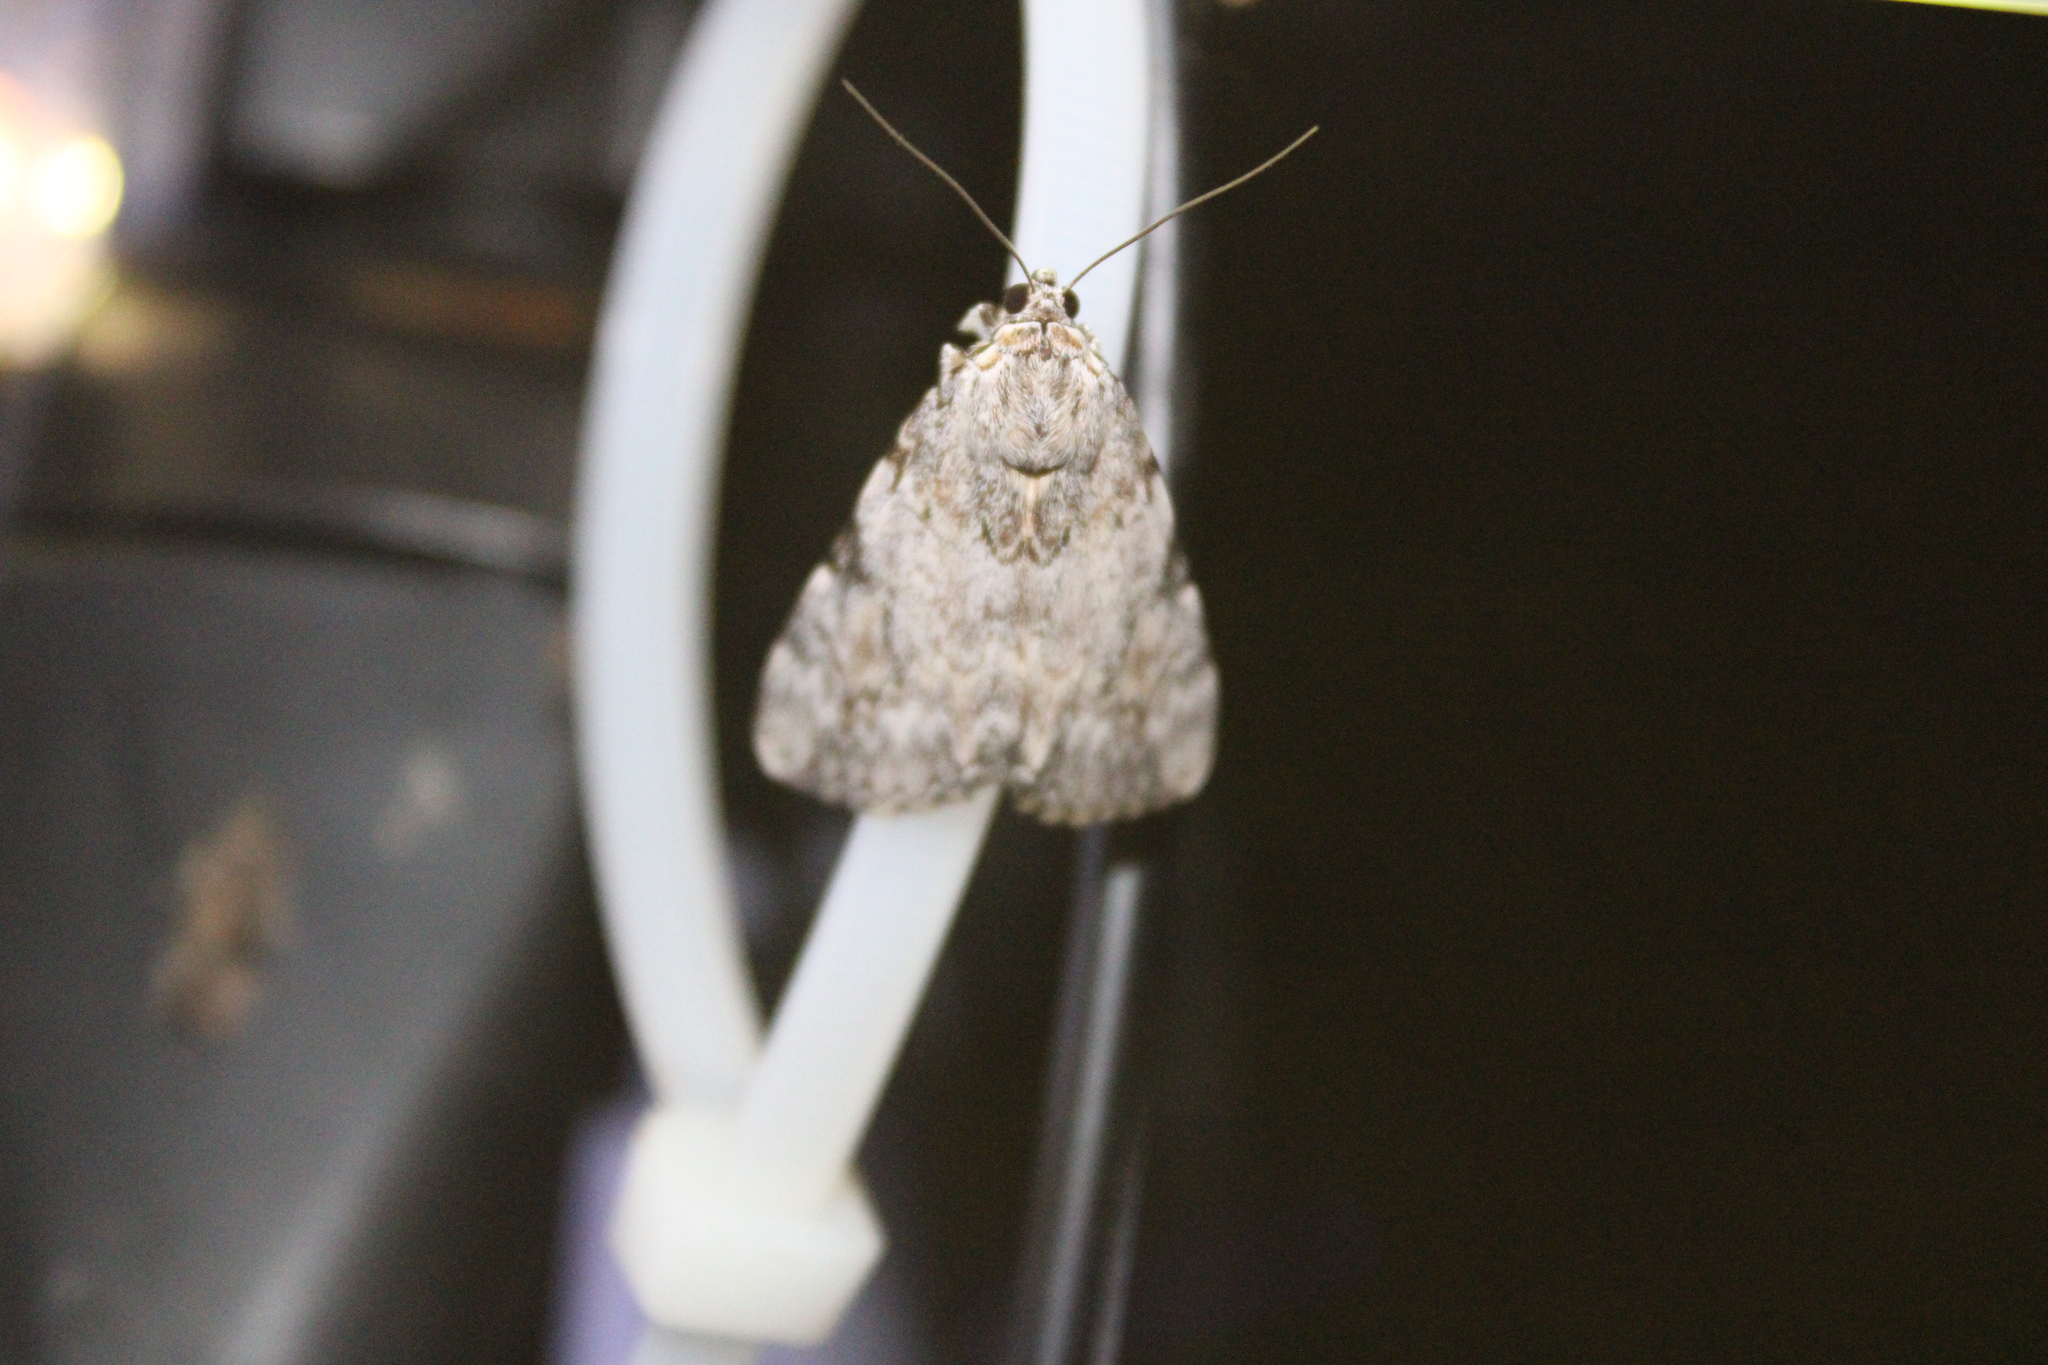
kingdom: Animalia
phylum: Arthropoda
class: Insecta
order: Lepidoptera
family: Erebidae
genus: Catocala
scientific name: Catocala amica
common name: Girlfriend underwing
